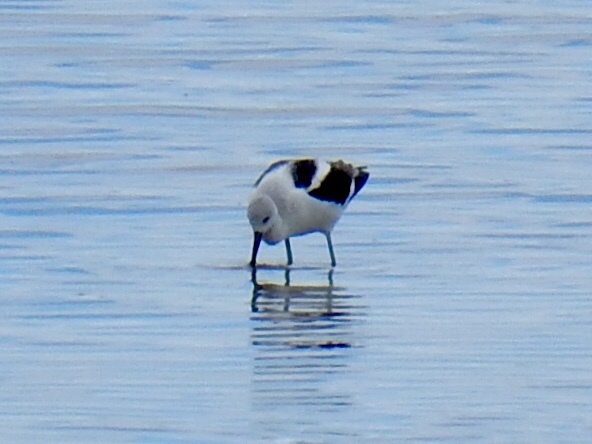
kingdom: Animalia
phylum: Chordata
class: Aves
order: Charadriiformes
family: Recurvirostridae
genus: Recurvirostra
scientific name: Recurvirostra americana
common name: American avocet
